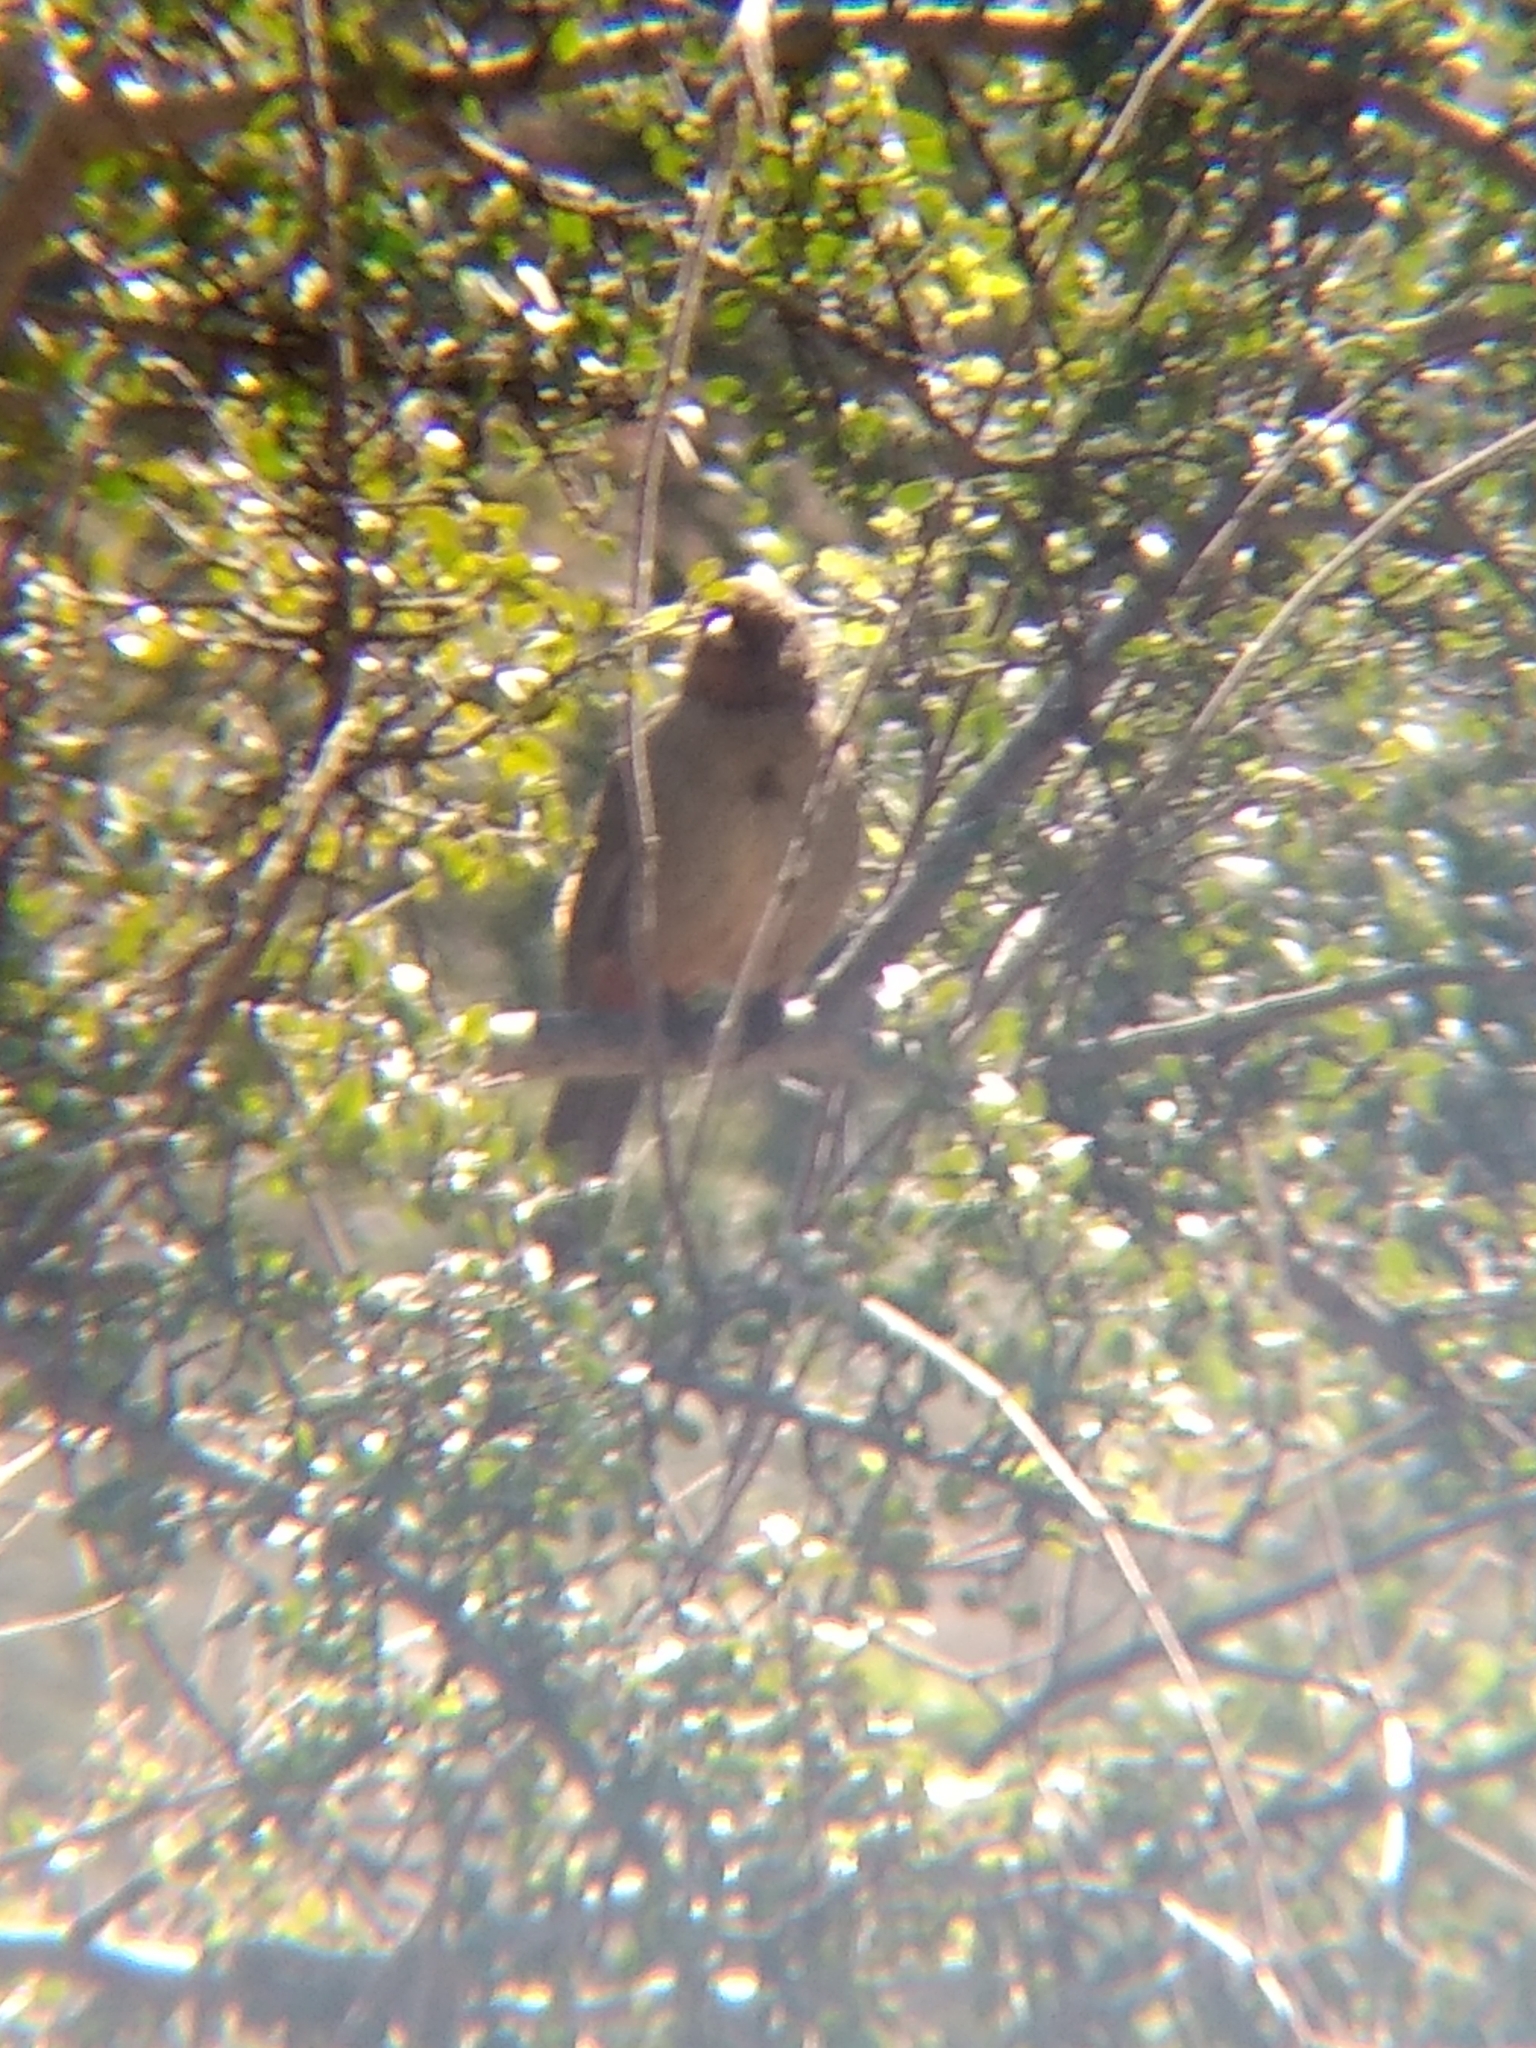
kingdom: Animalia
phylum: Chordata
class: Aves
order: Passeriformes
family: Passerellidae
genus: Melozone
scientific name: Melozone crissalis
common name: California towhee
